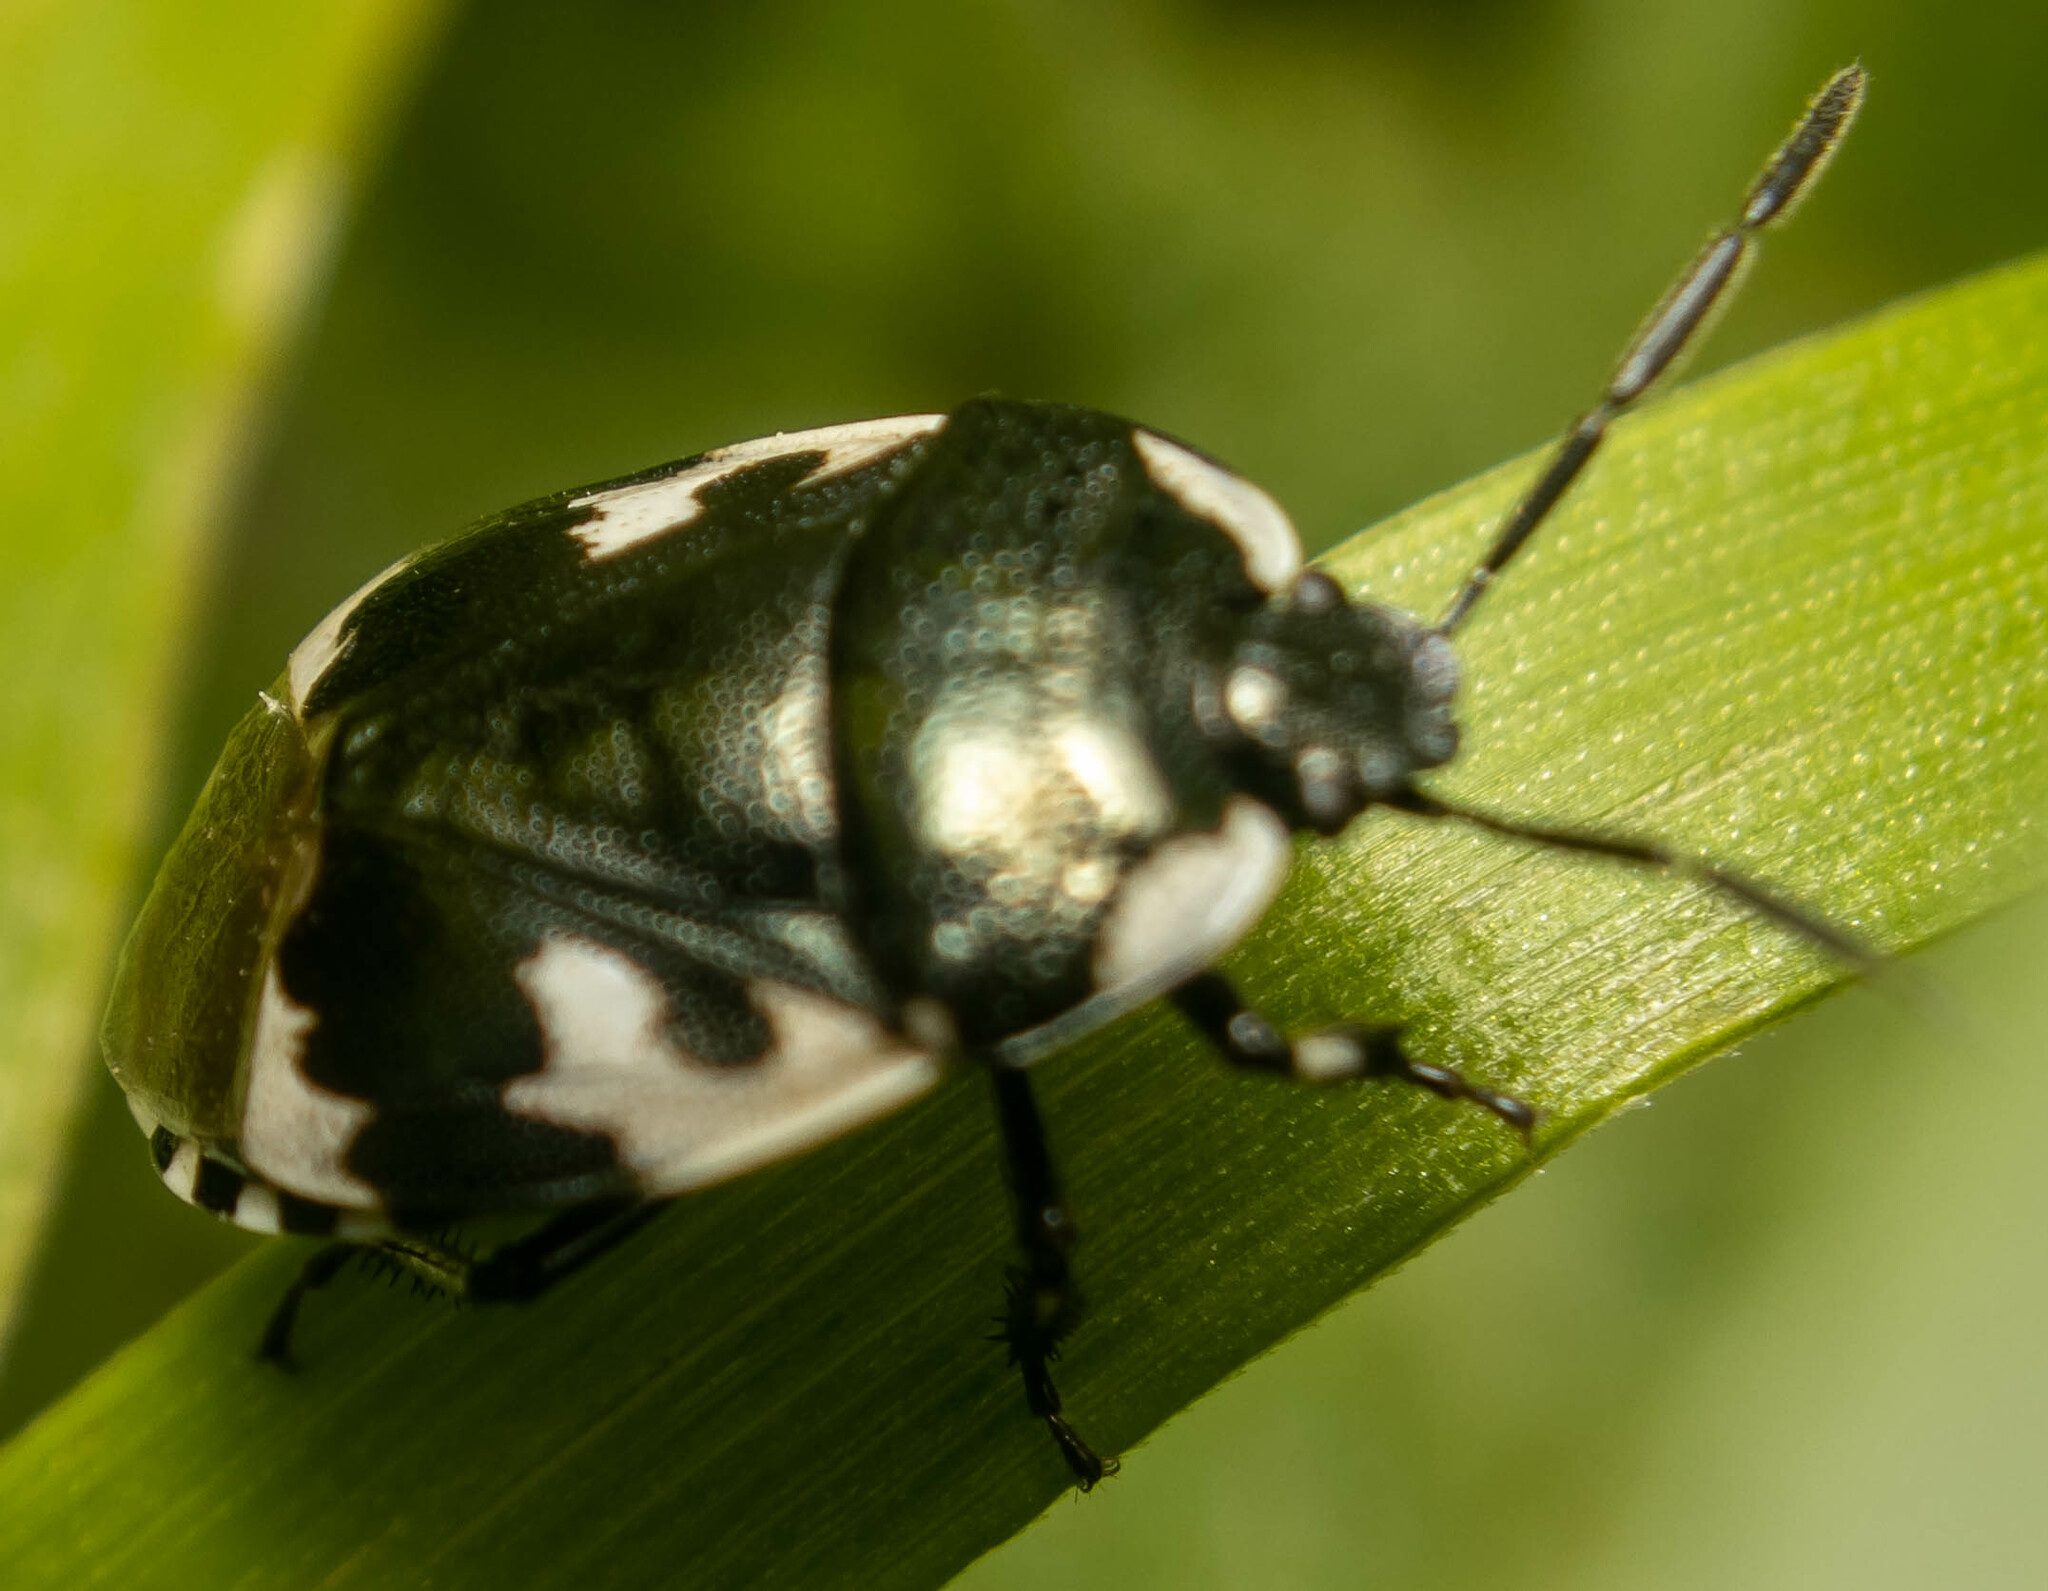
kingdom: Animalia
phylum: Arthropoda
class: Insecta
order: Hemiptera
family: Cydnidae
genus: Tritomegas
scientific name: Tritomegas bicolor
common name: Pied shieldbug
